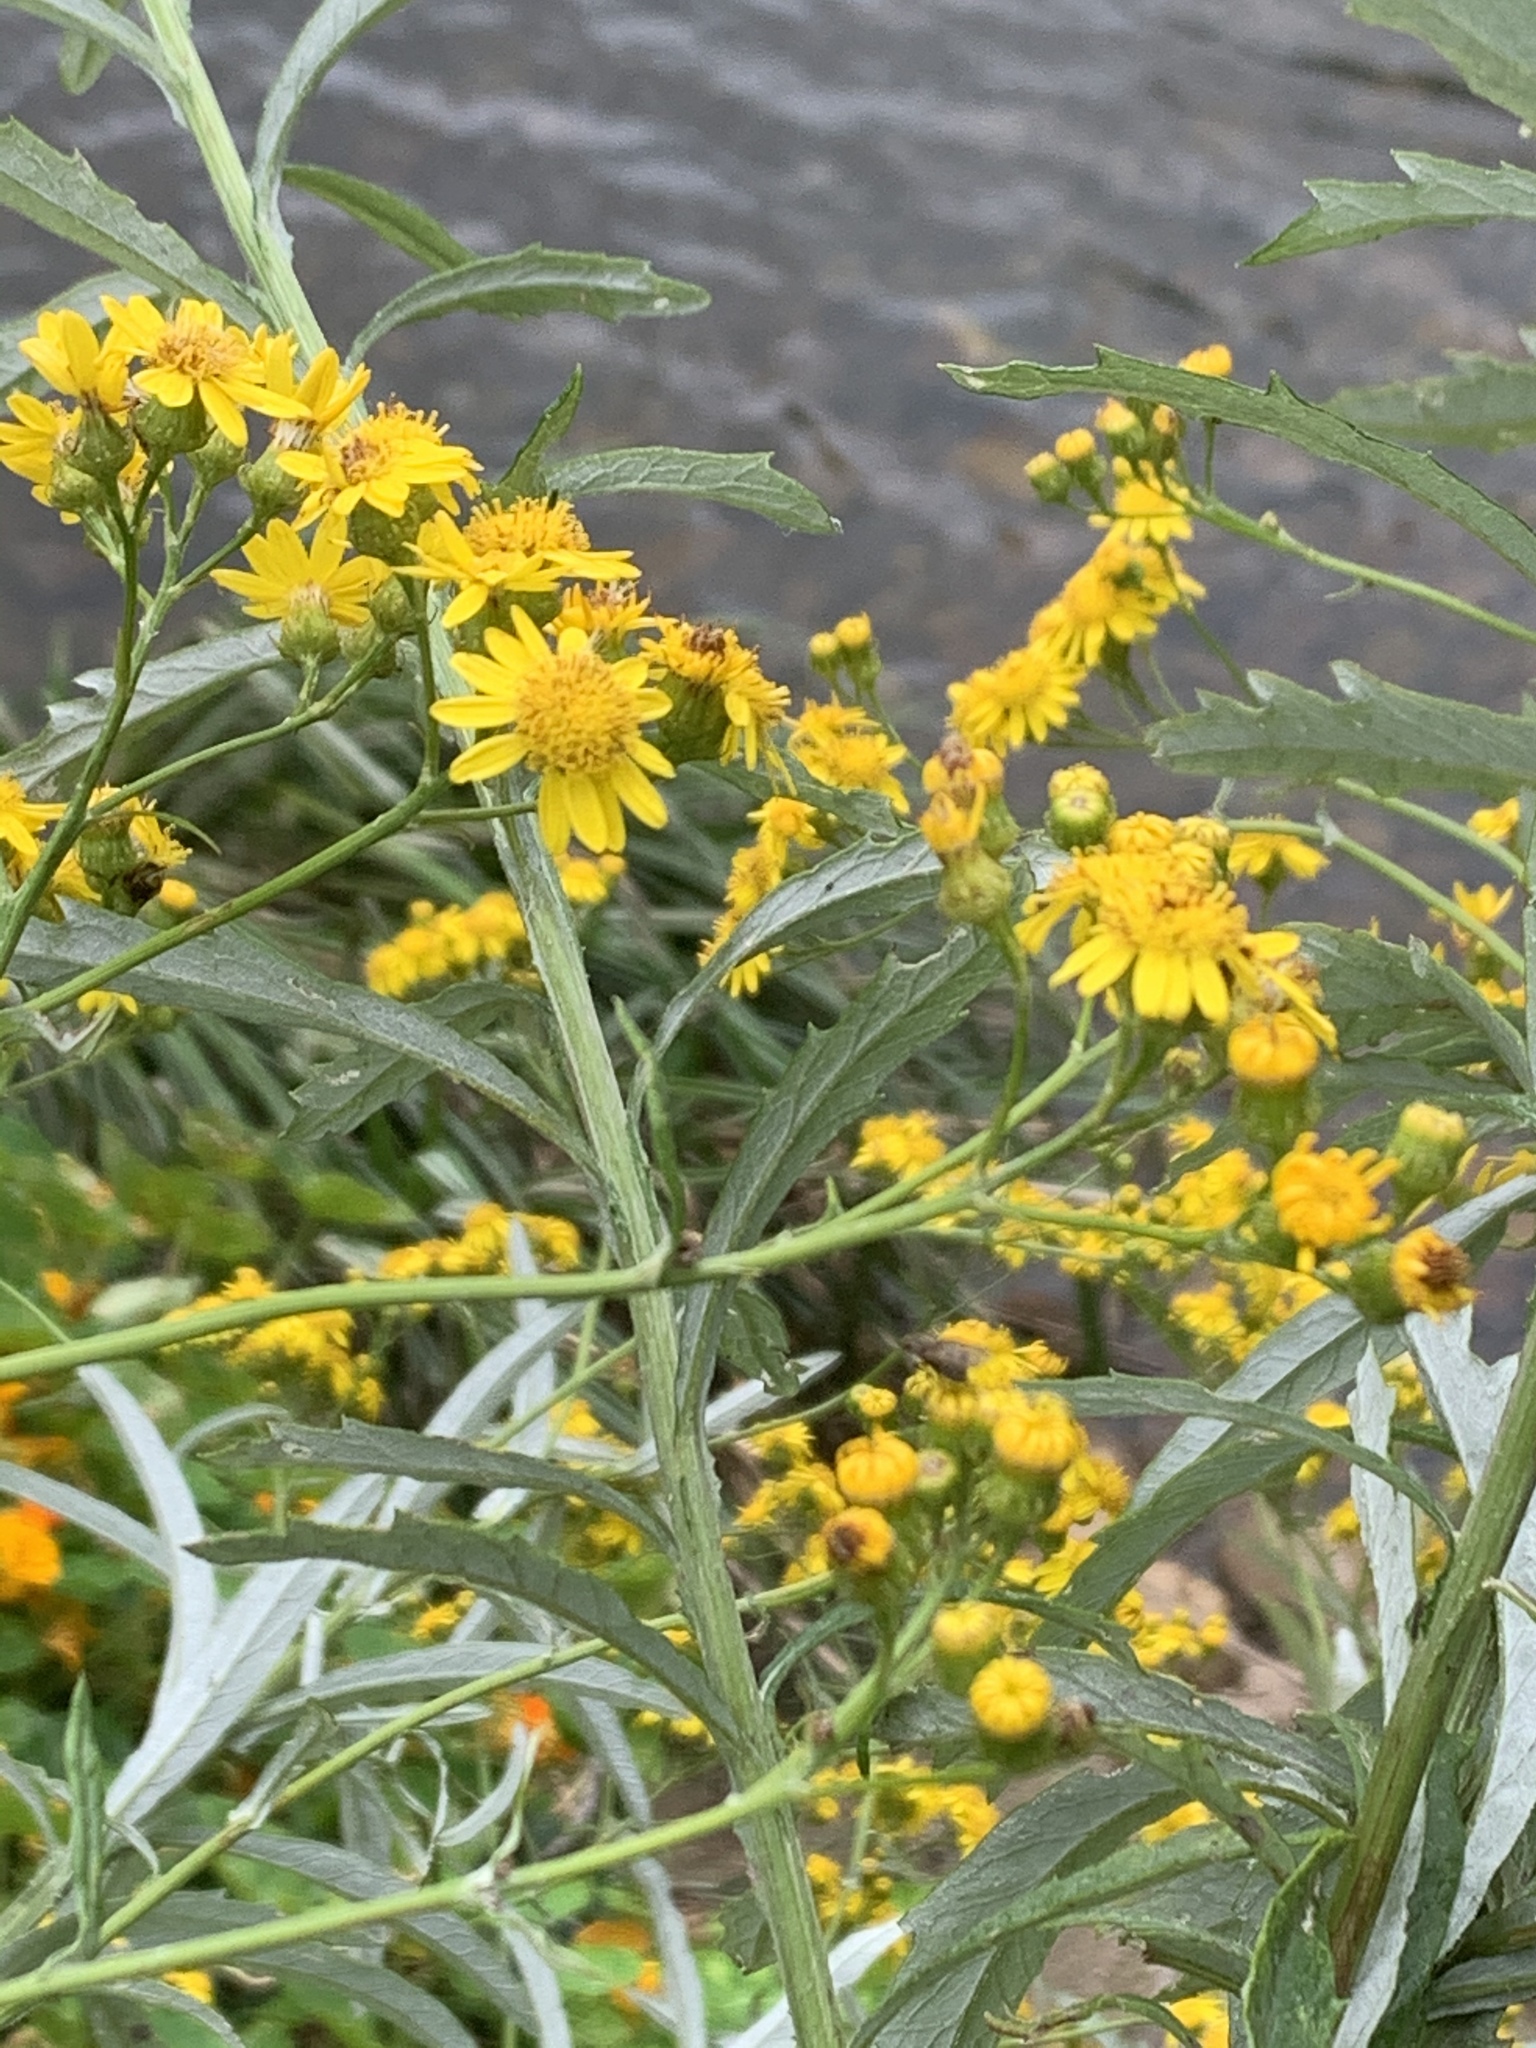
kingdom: Plantae
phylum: Tracheophyta
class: Magnoliopsida
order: Asterales
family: Asteraceae
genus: Senecio
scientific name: Senecio pterophorus
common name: Shoddy ragwort
